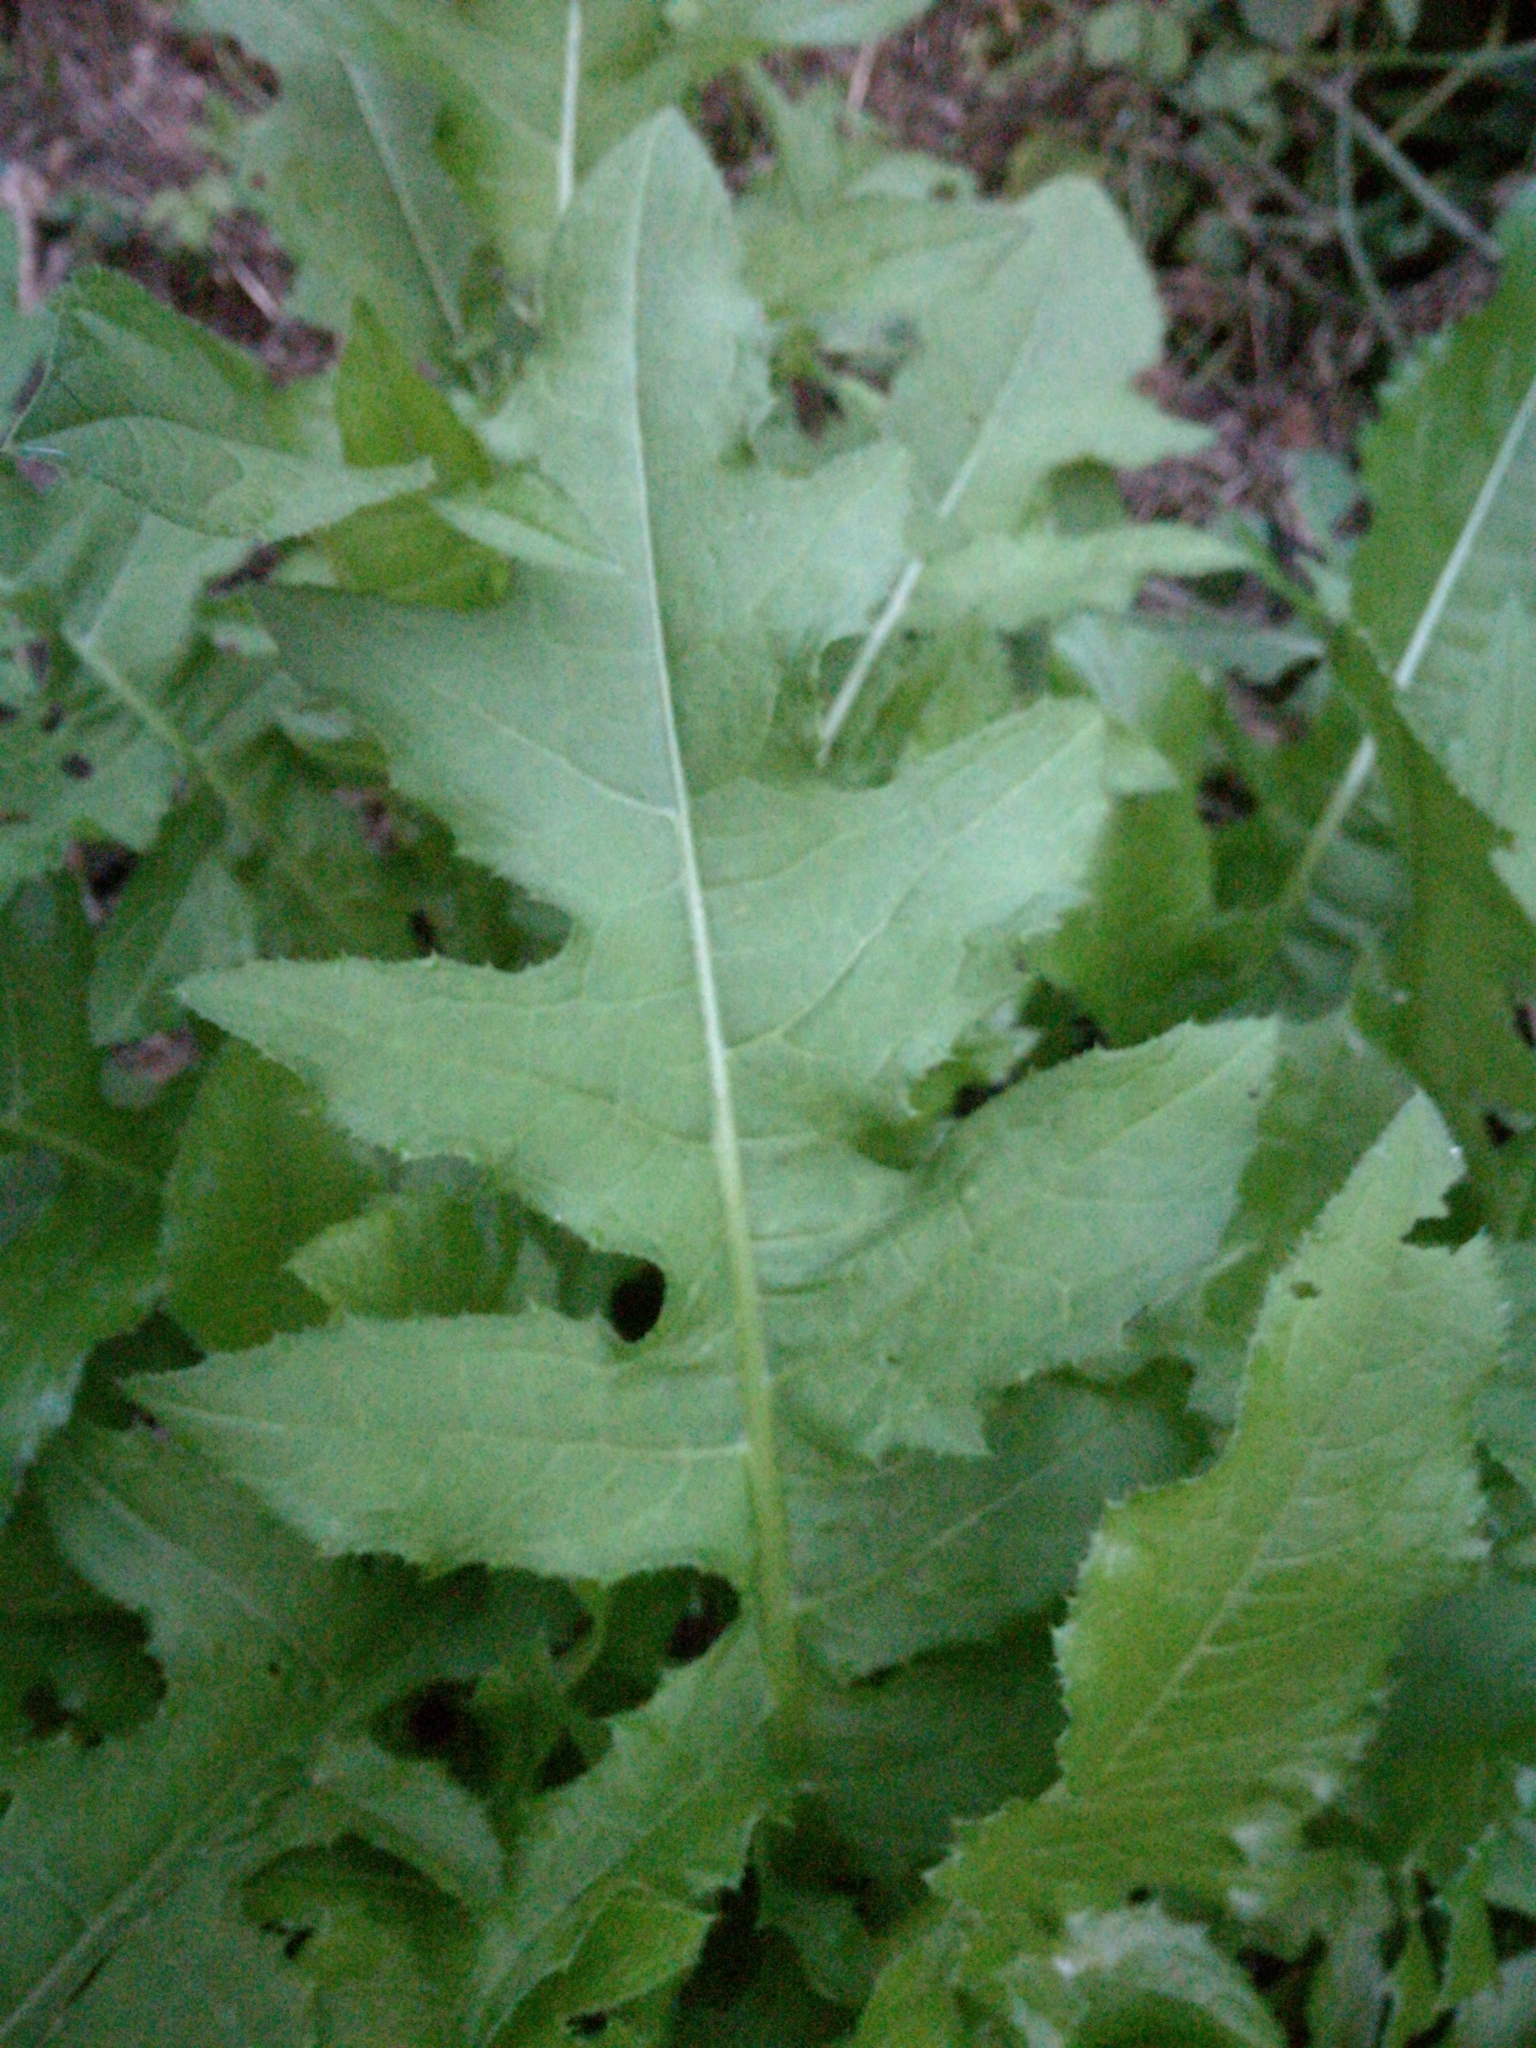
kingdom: Plantae
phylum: Tracheophyta
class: Magnoliopsida
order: Asterales
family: Asteraceae
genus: Cirsium
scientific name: Cirsium oleraceum
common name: Cabbage thistle
